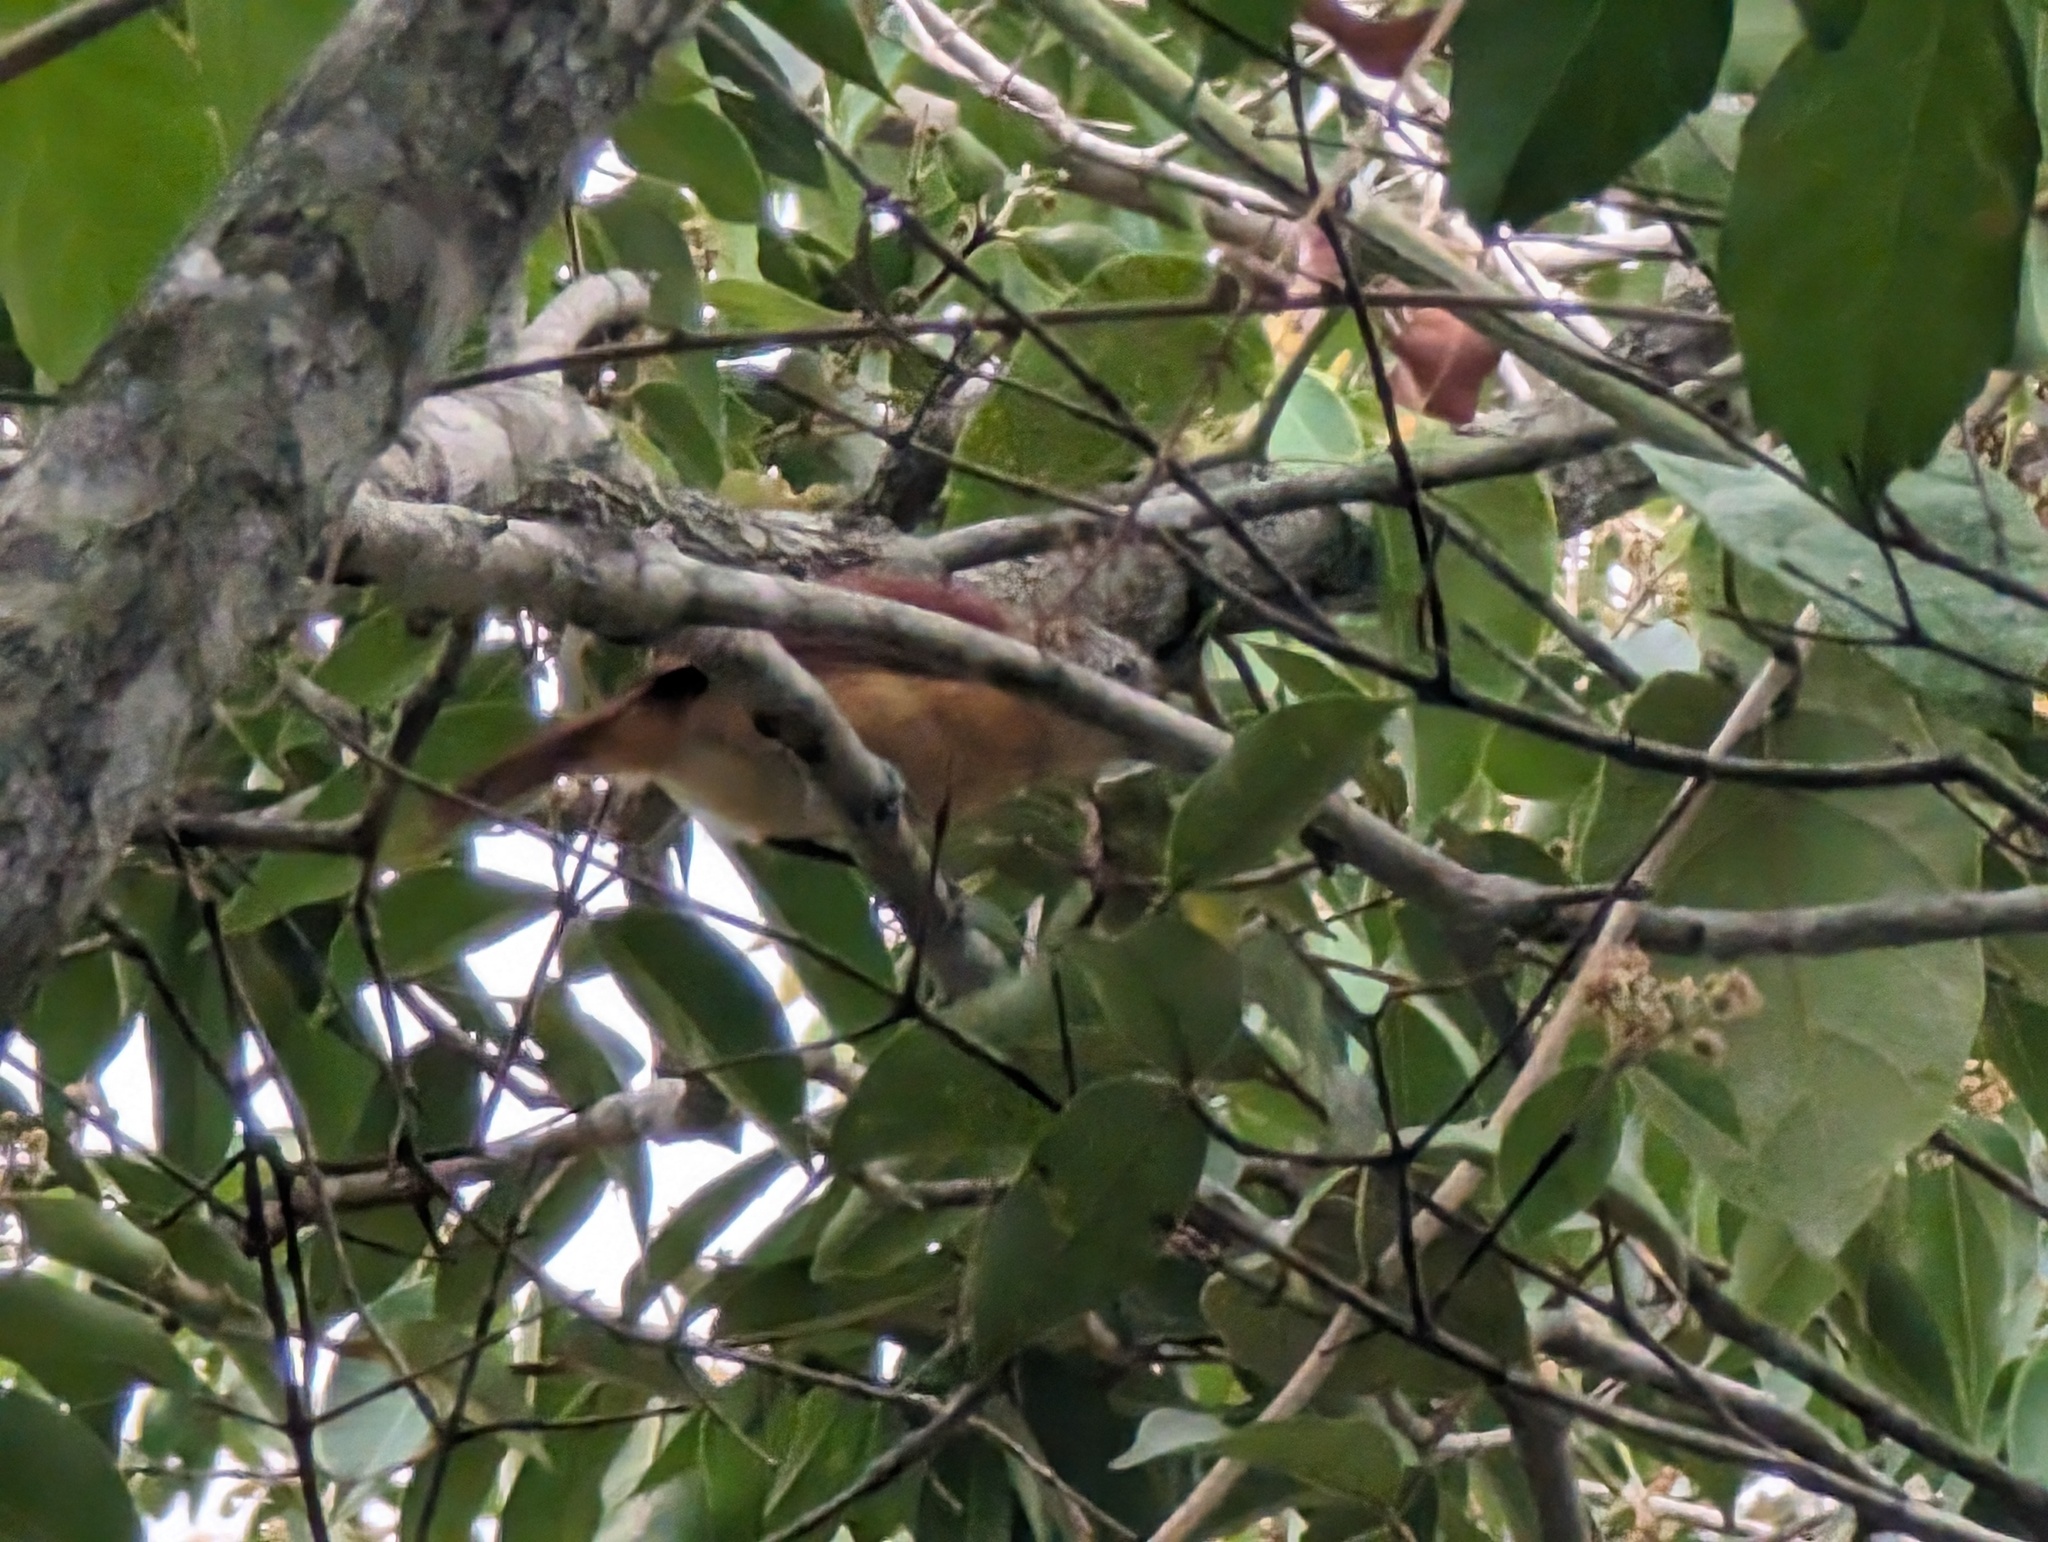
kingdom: Animalia
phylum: Chordata
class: Aves
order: Passeriformes
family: Cotingidae
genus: Pachyramphus
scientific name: Pachyramphus cinnamomeus
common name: Cinnamon becard
